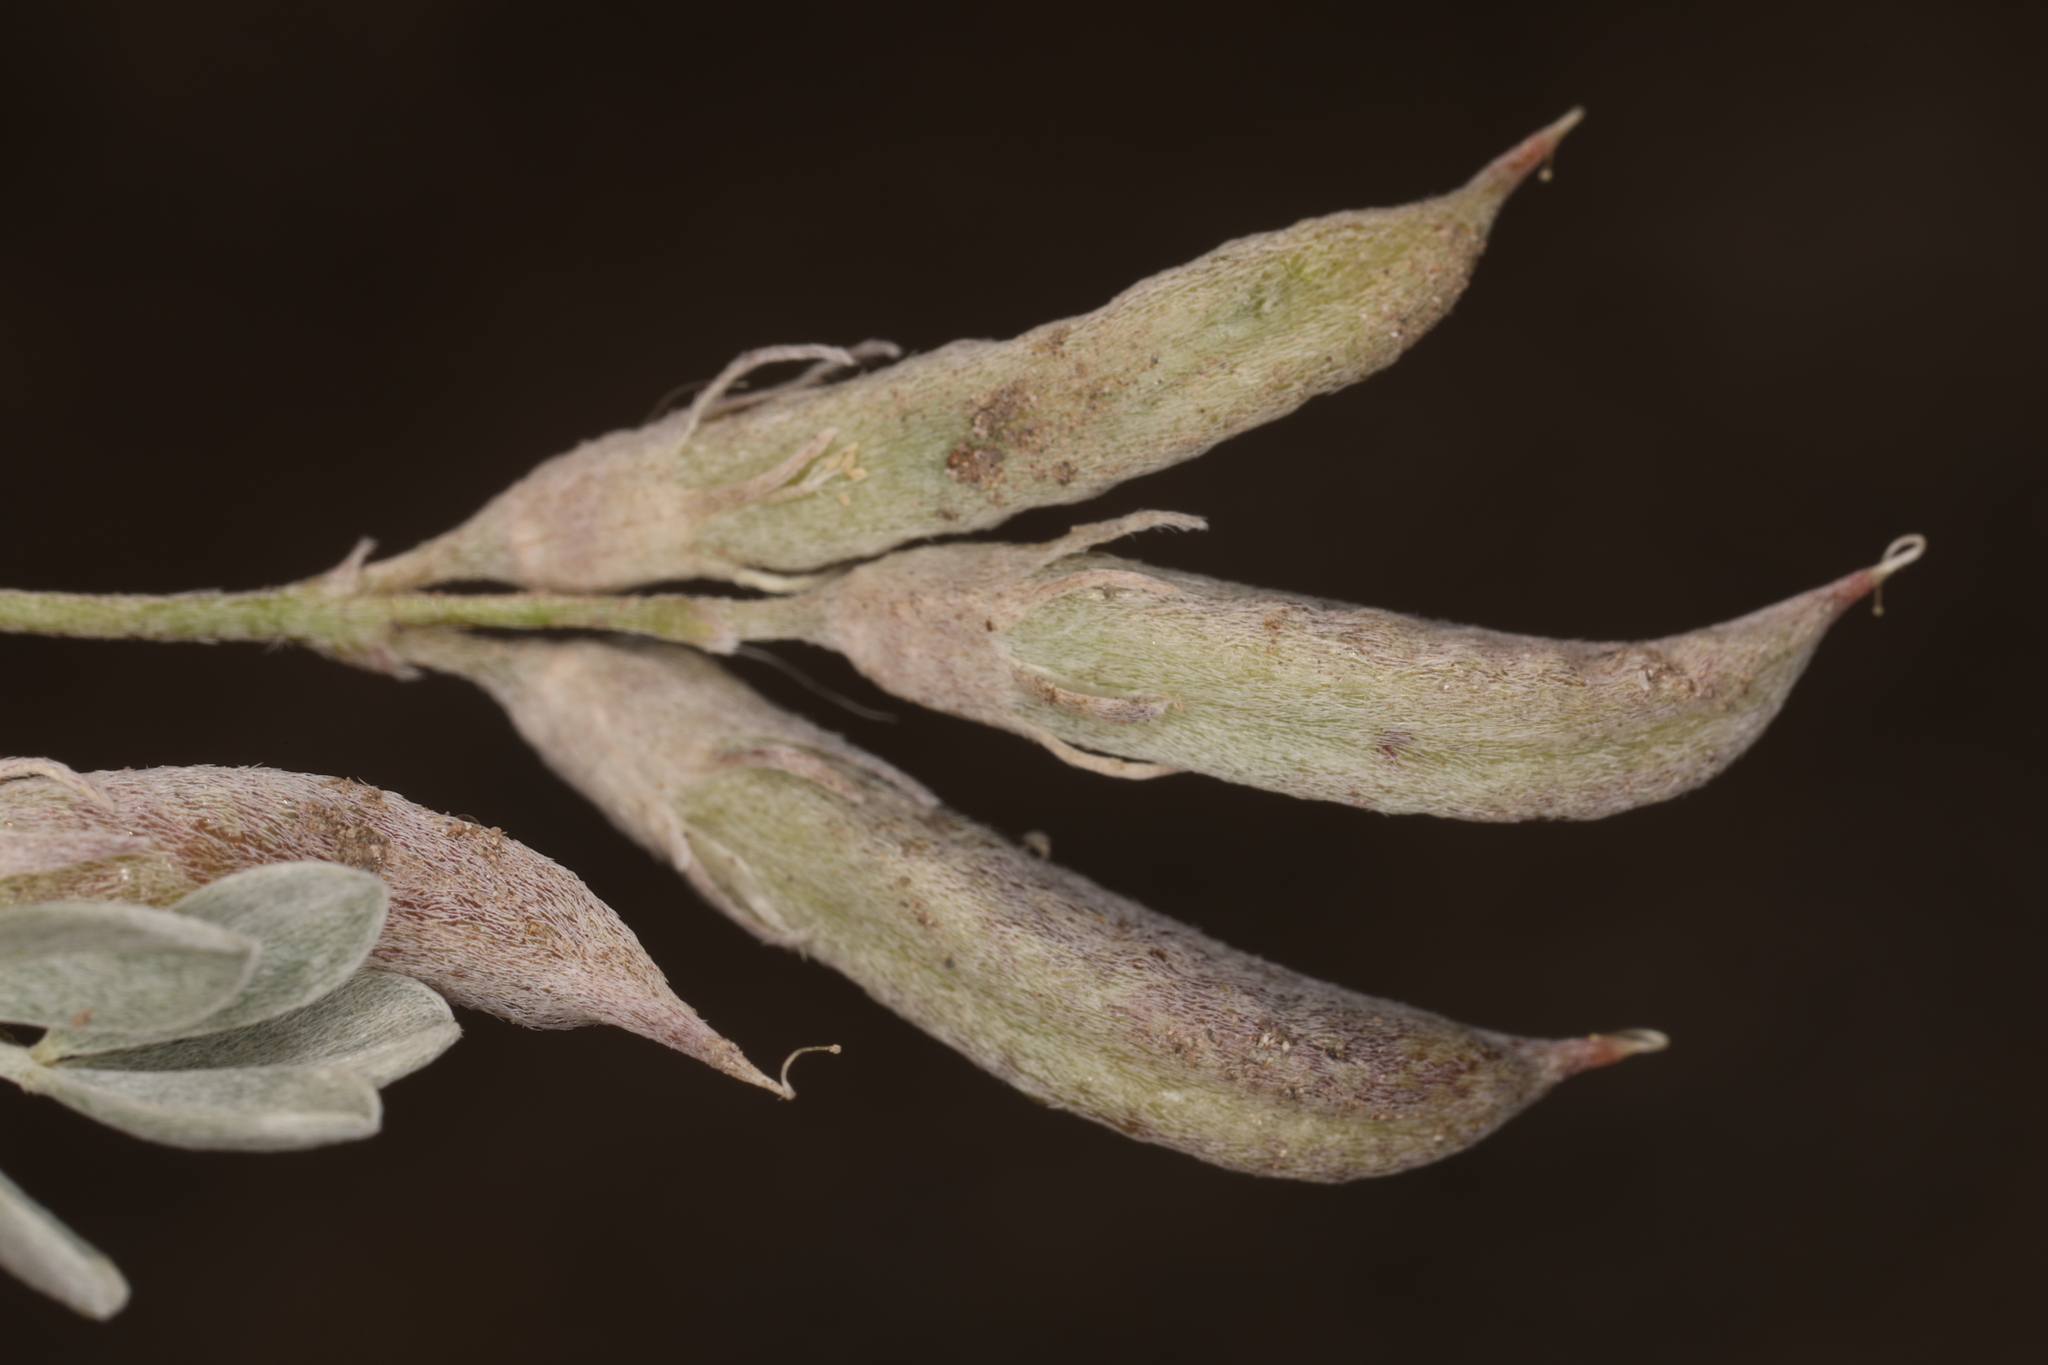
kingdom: Plantae
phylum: Tracheophyta
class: Magnoliopsida
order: Fabales
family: Fabaceae
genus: Astragalus
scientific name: Astragalus calycosus
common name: King's milkvetch
